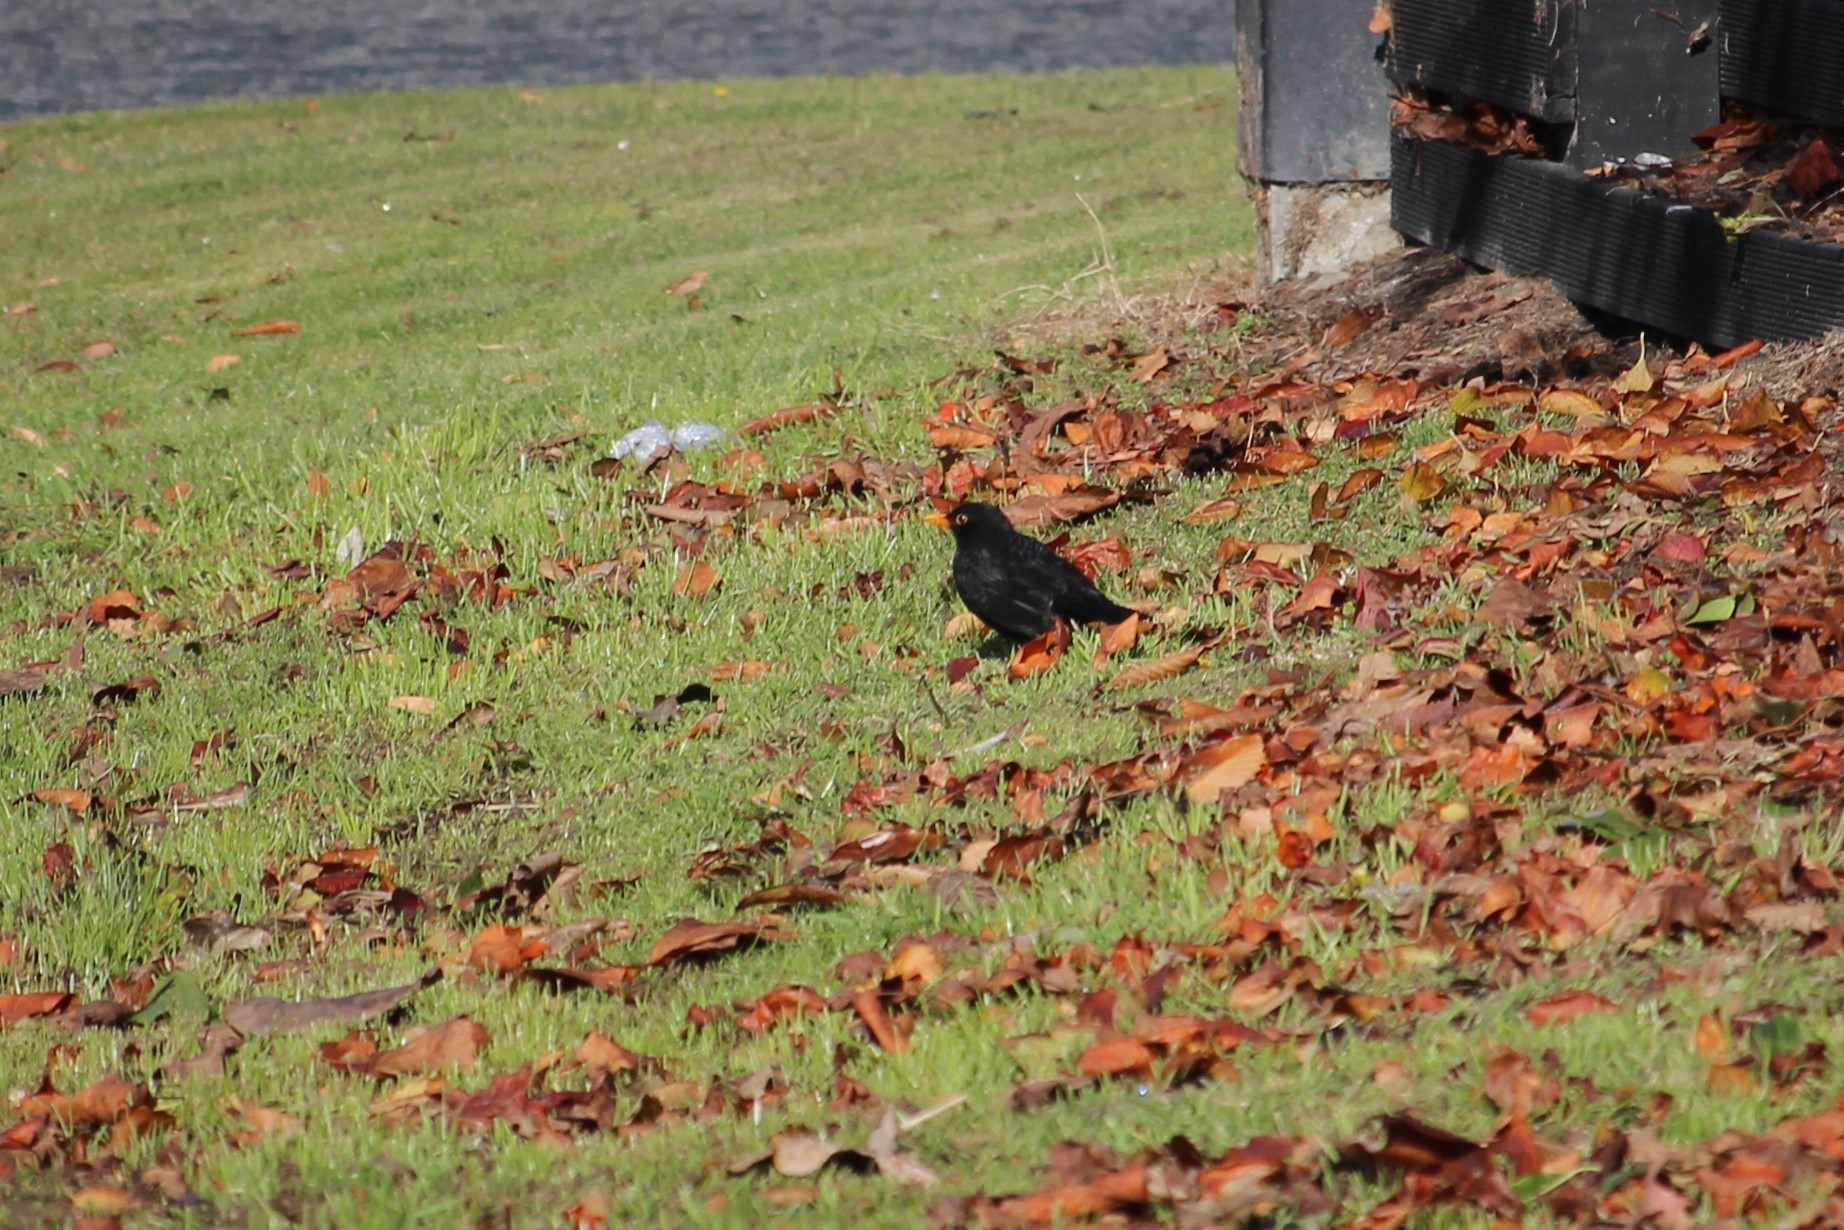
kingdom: Animalia
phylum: Chordata
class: Aves
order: Passeriformes
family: Turdidae
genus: Turdus
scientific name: Turdus merula
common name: Common blackbird
